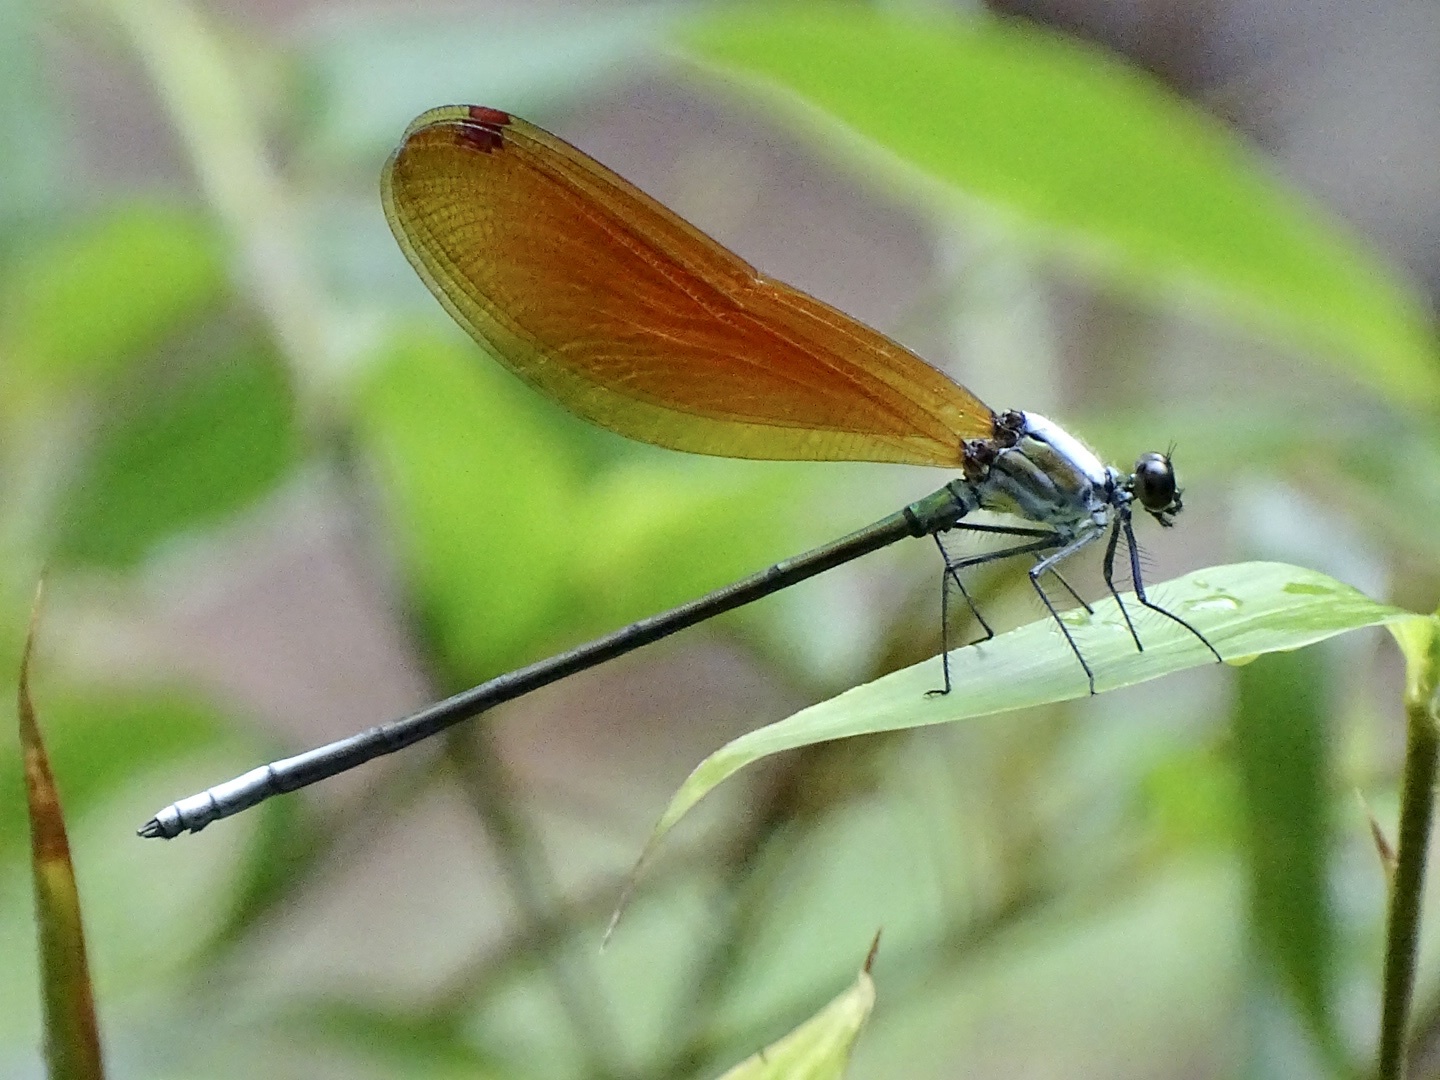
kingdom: Animalia
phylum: Arthropoda
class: Insecta
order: Odonata
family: Calopterygidae
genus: Mnais
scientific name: Mnais mneme
